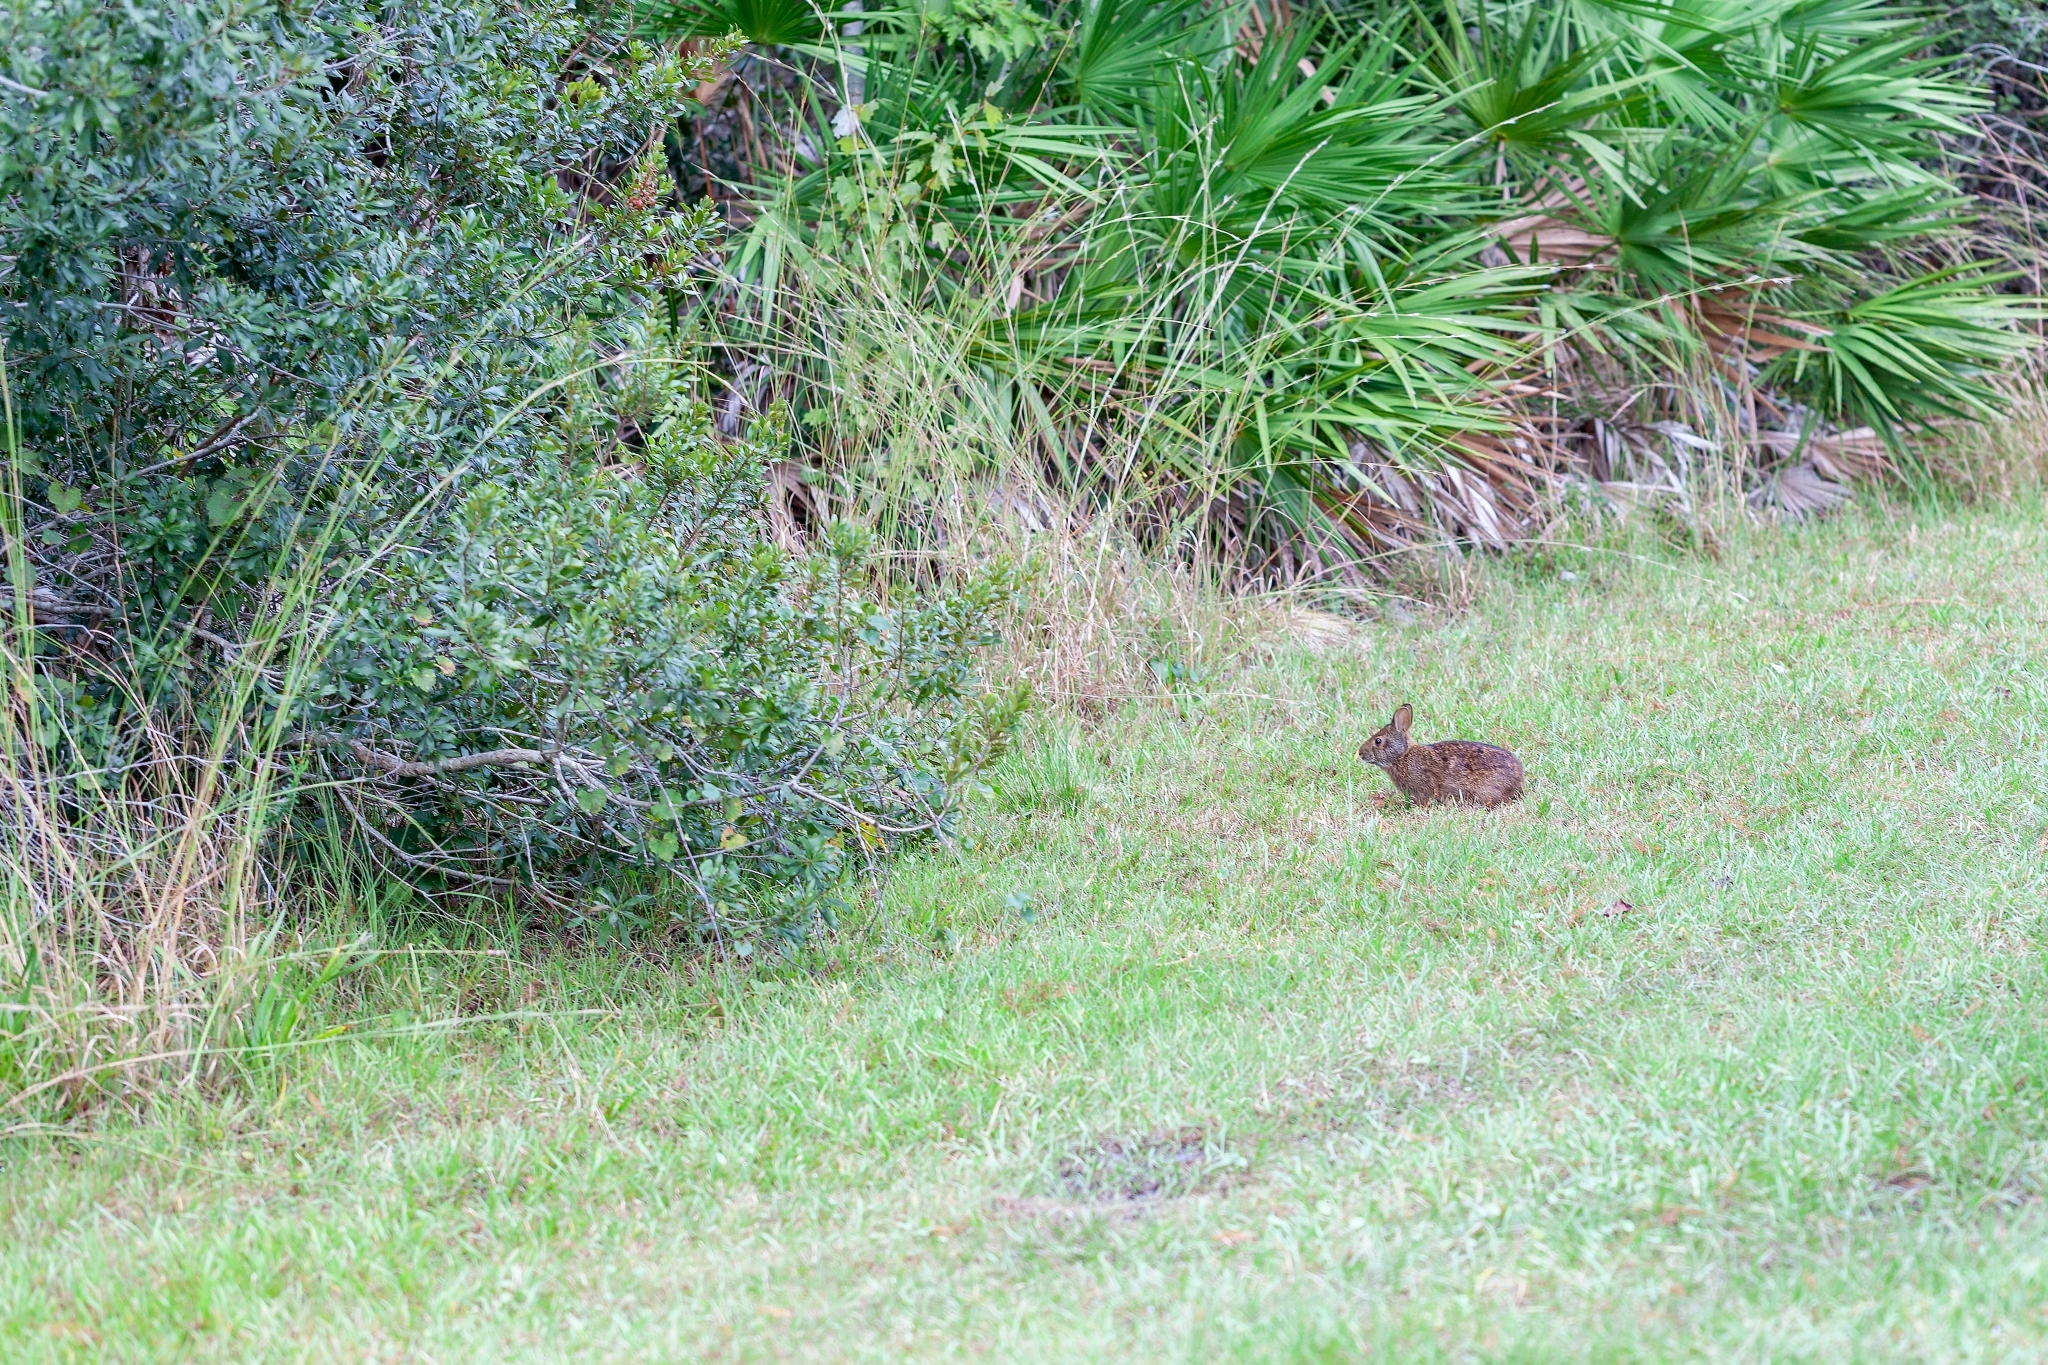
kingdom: Animalia
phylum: Chordata
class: Mammalia
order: Lagomorpha
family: Leporidae
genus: Sylvilagus
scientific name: Sylvilagus palustris
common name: Marsh rabbit
